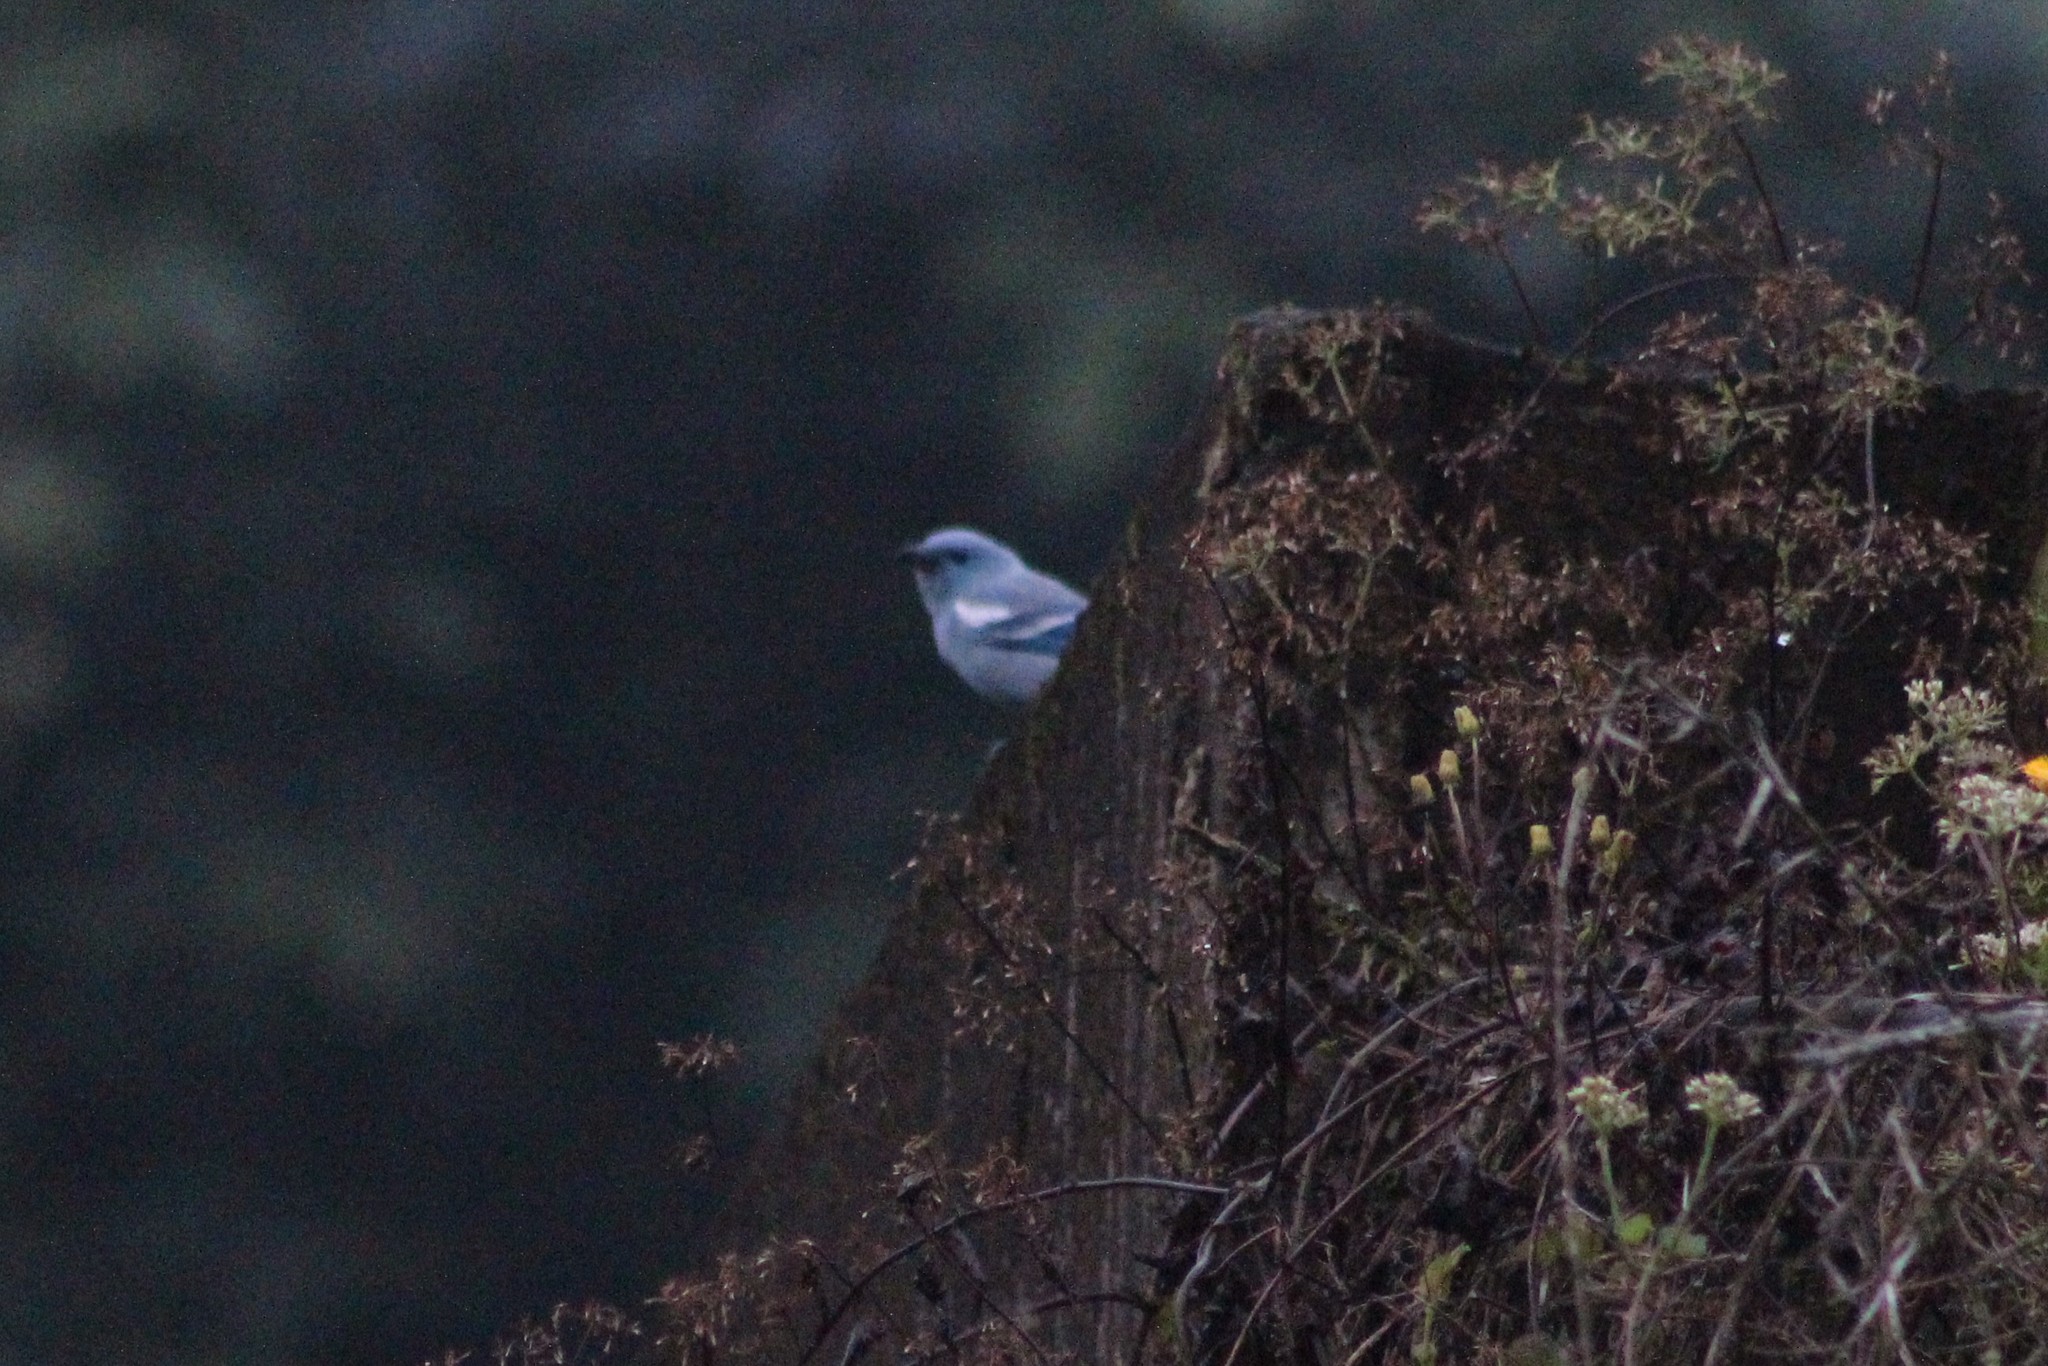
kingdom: Animalia
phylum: Chordata
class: Aves
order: Passeriformes
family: Thraupidae
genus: Thraupis
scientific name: Thraupis episcopus
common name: Blue-grey tanager
